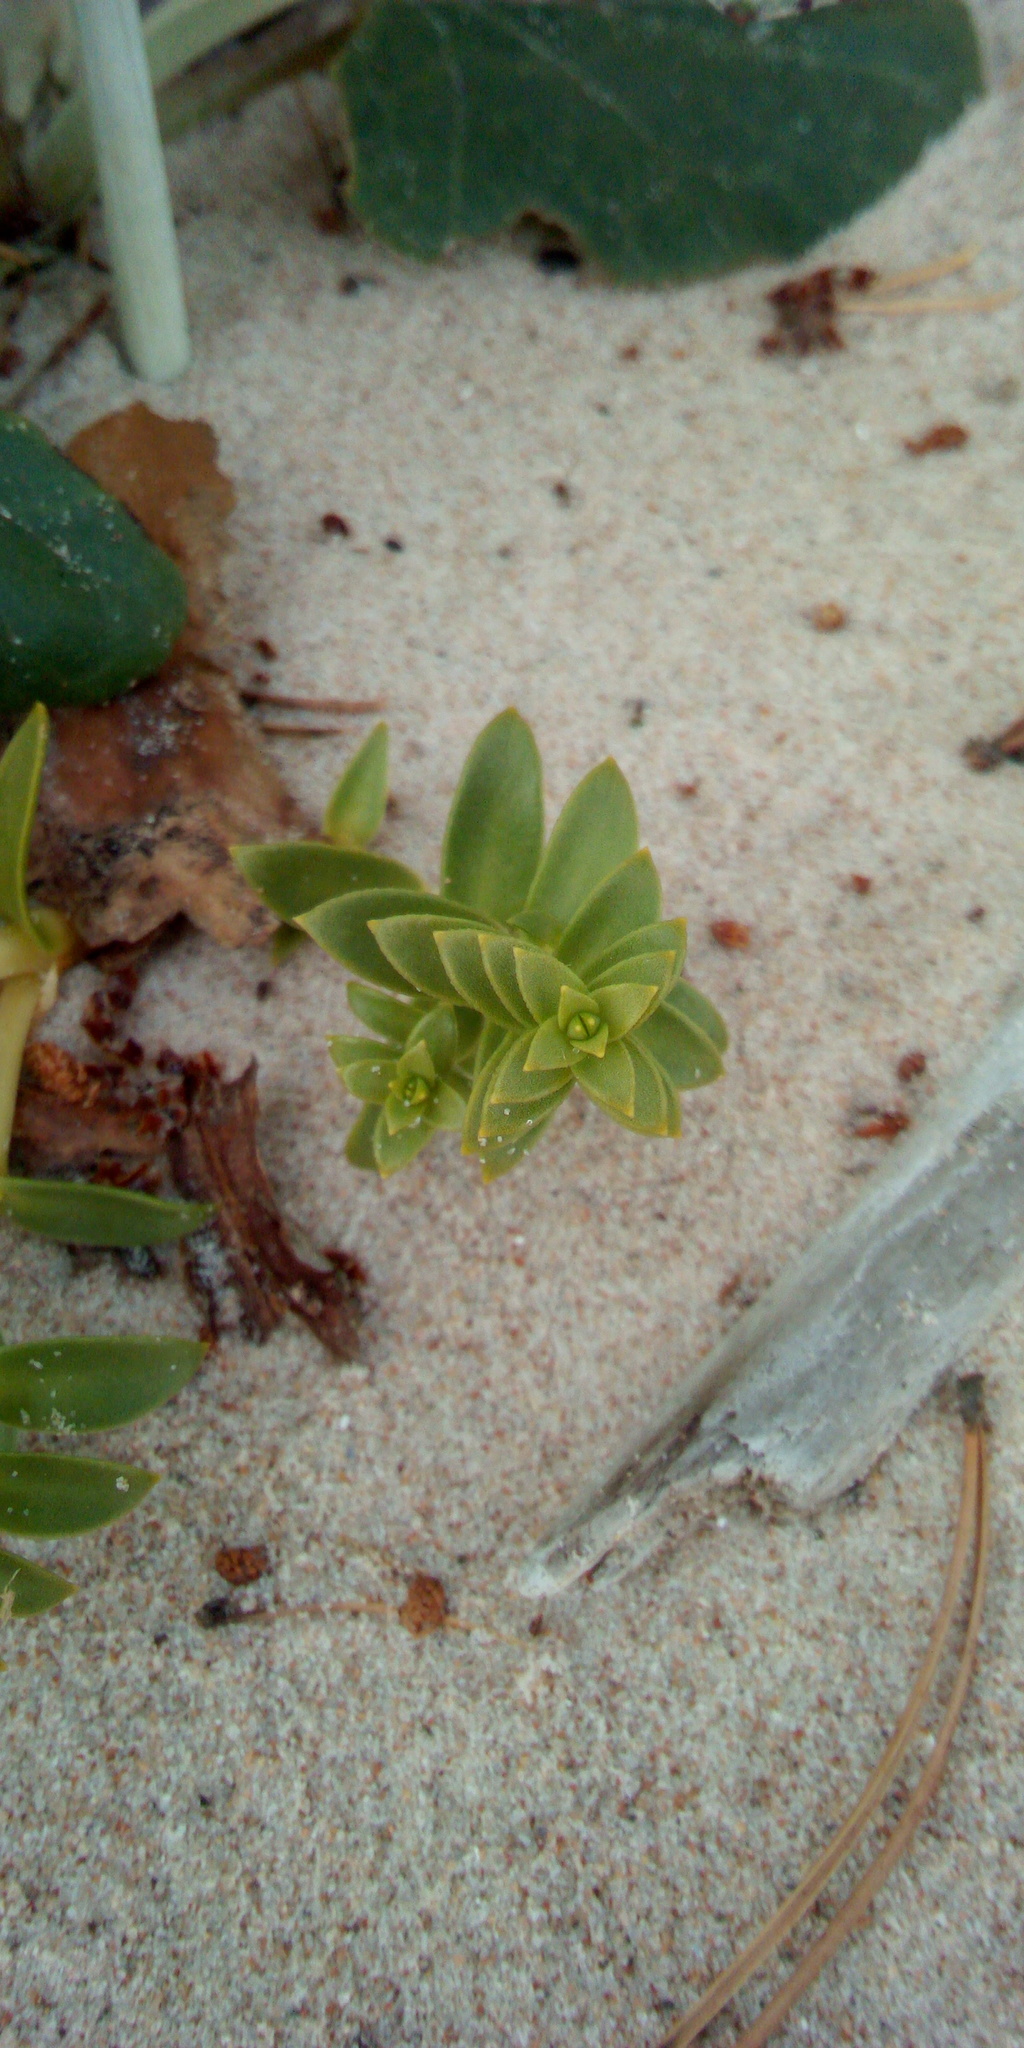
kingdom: Plantae
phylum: Tracheophyta
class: Magnoliopsida
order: Caryophyllales
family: Caryophyllaceae
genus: Honckenya
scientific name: Honckenya peploides
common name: Sea sandwort
